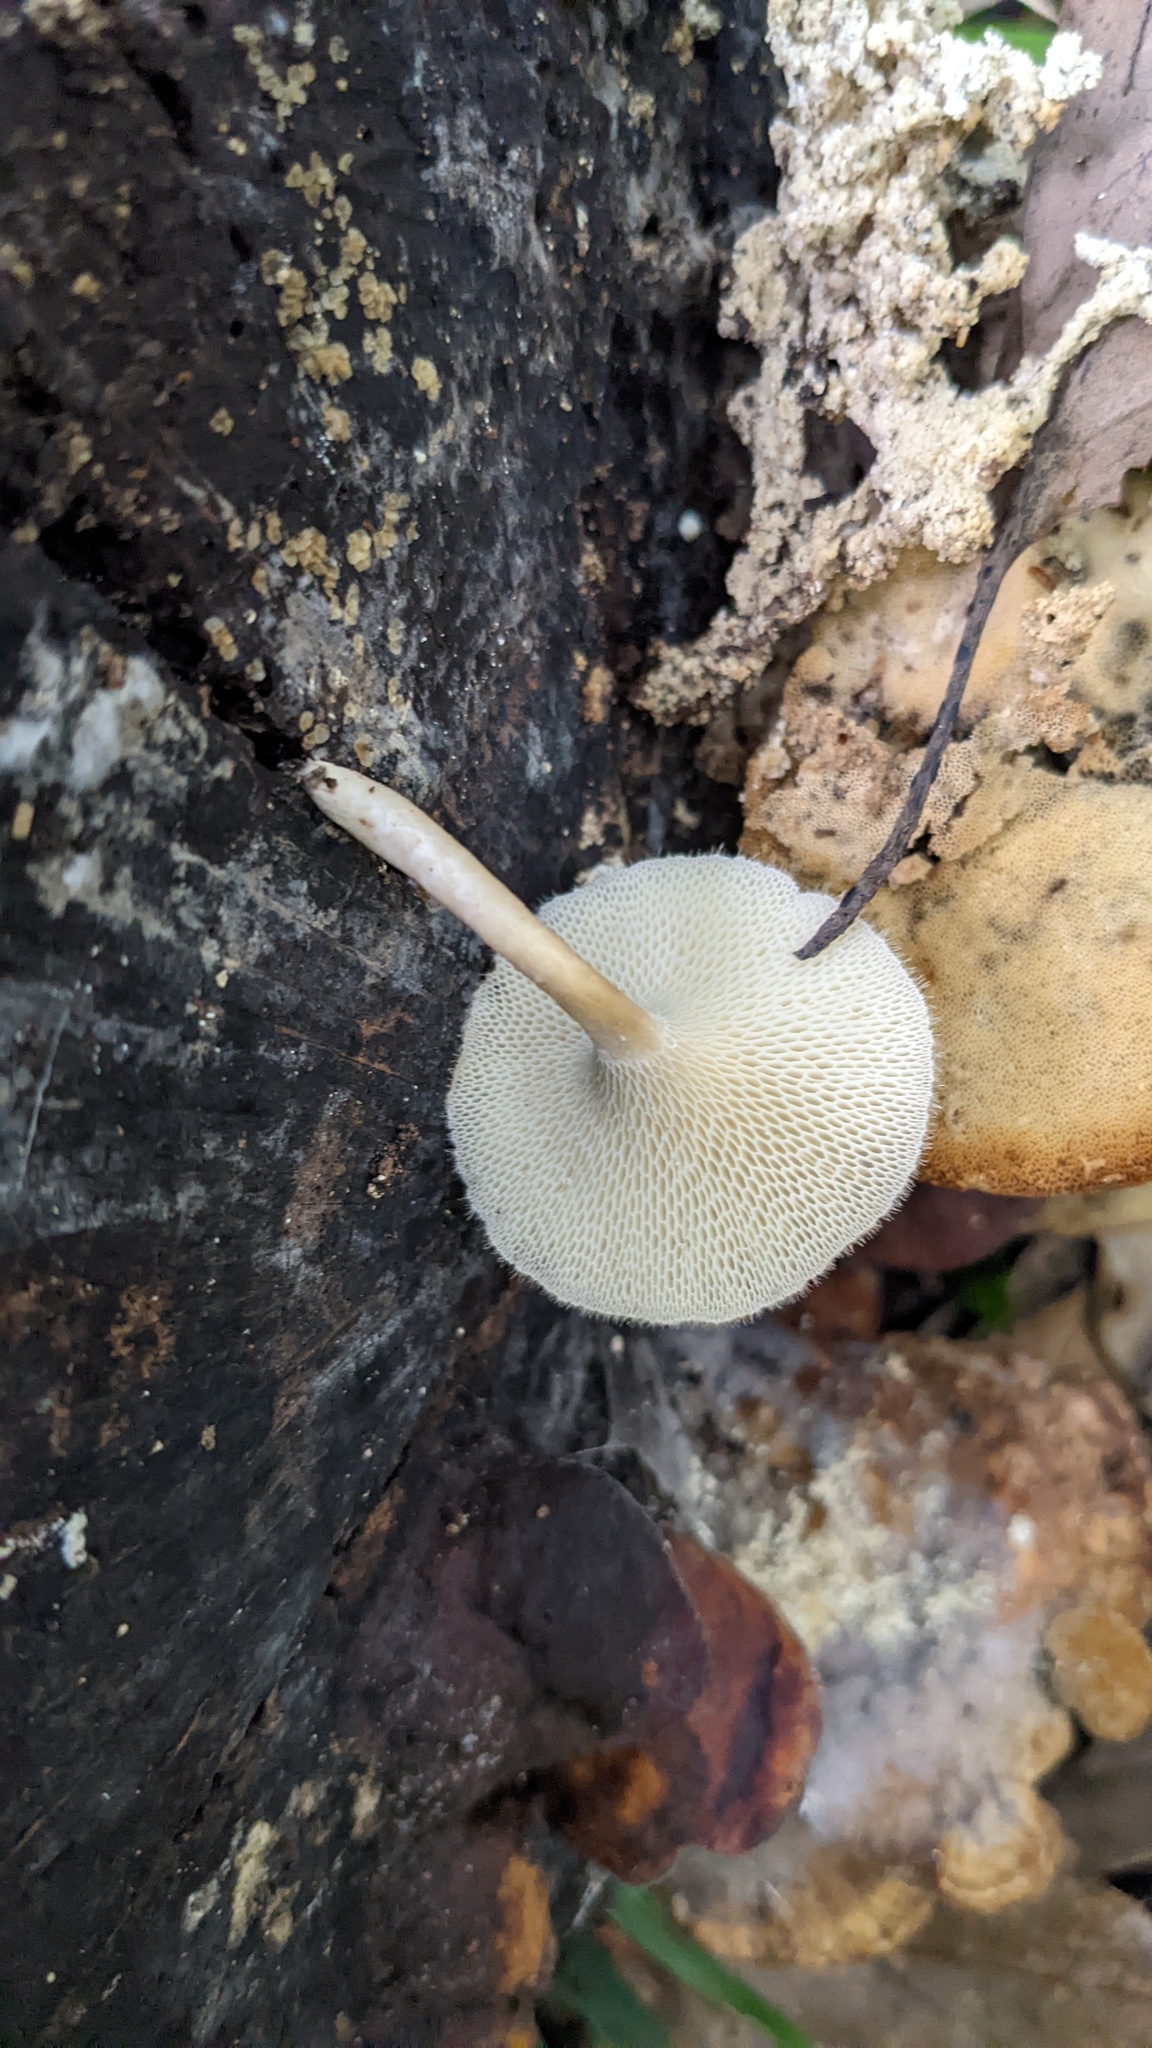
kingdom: Fungi
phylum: Basidiomycota
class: Agaricomycetes
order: Polyporales
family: Polyporaceae
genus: Lentinus
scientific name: Lentinus arcularius
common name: Spring polypore
